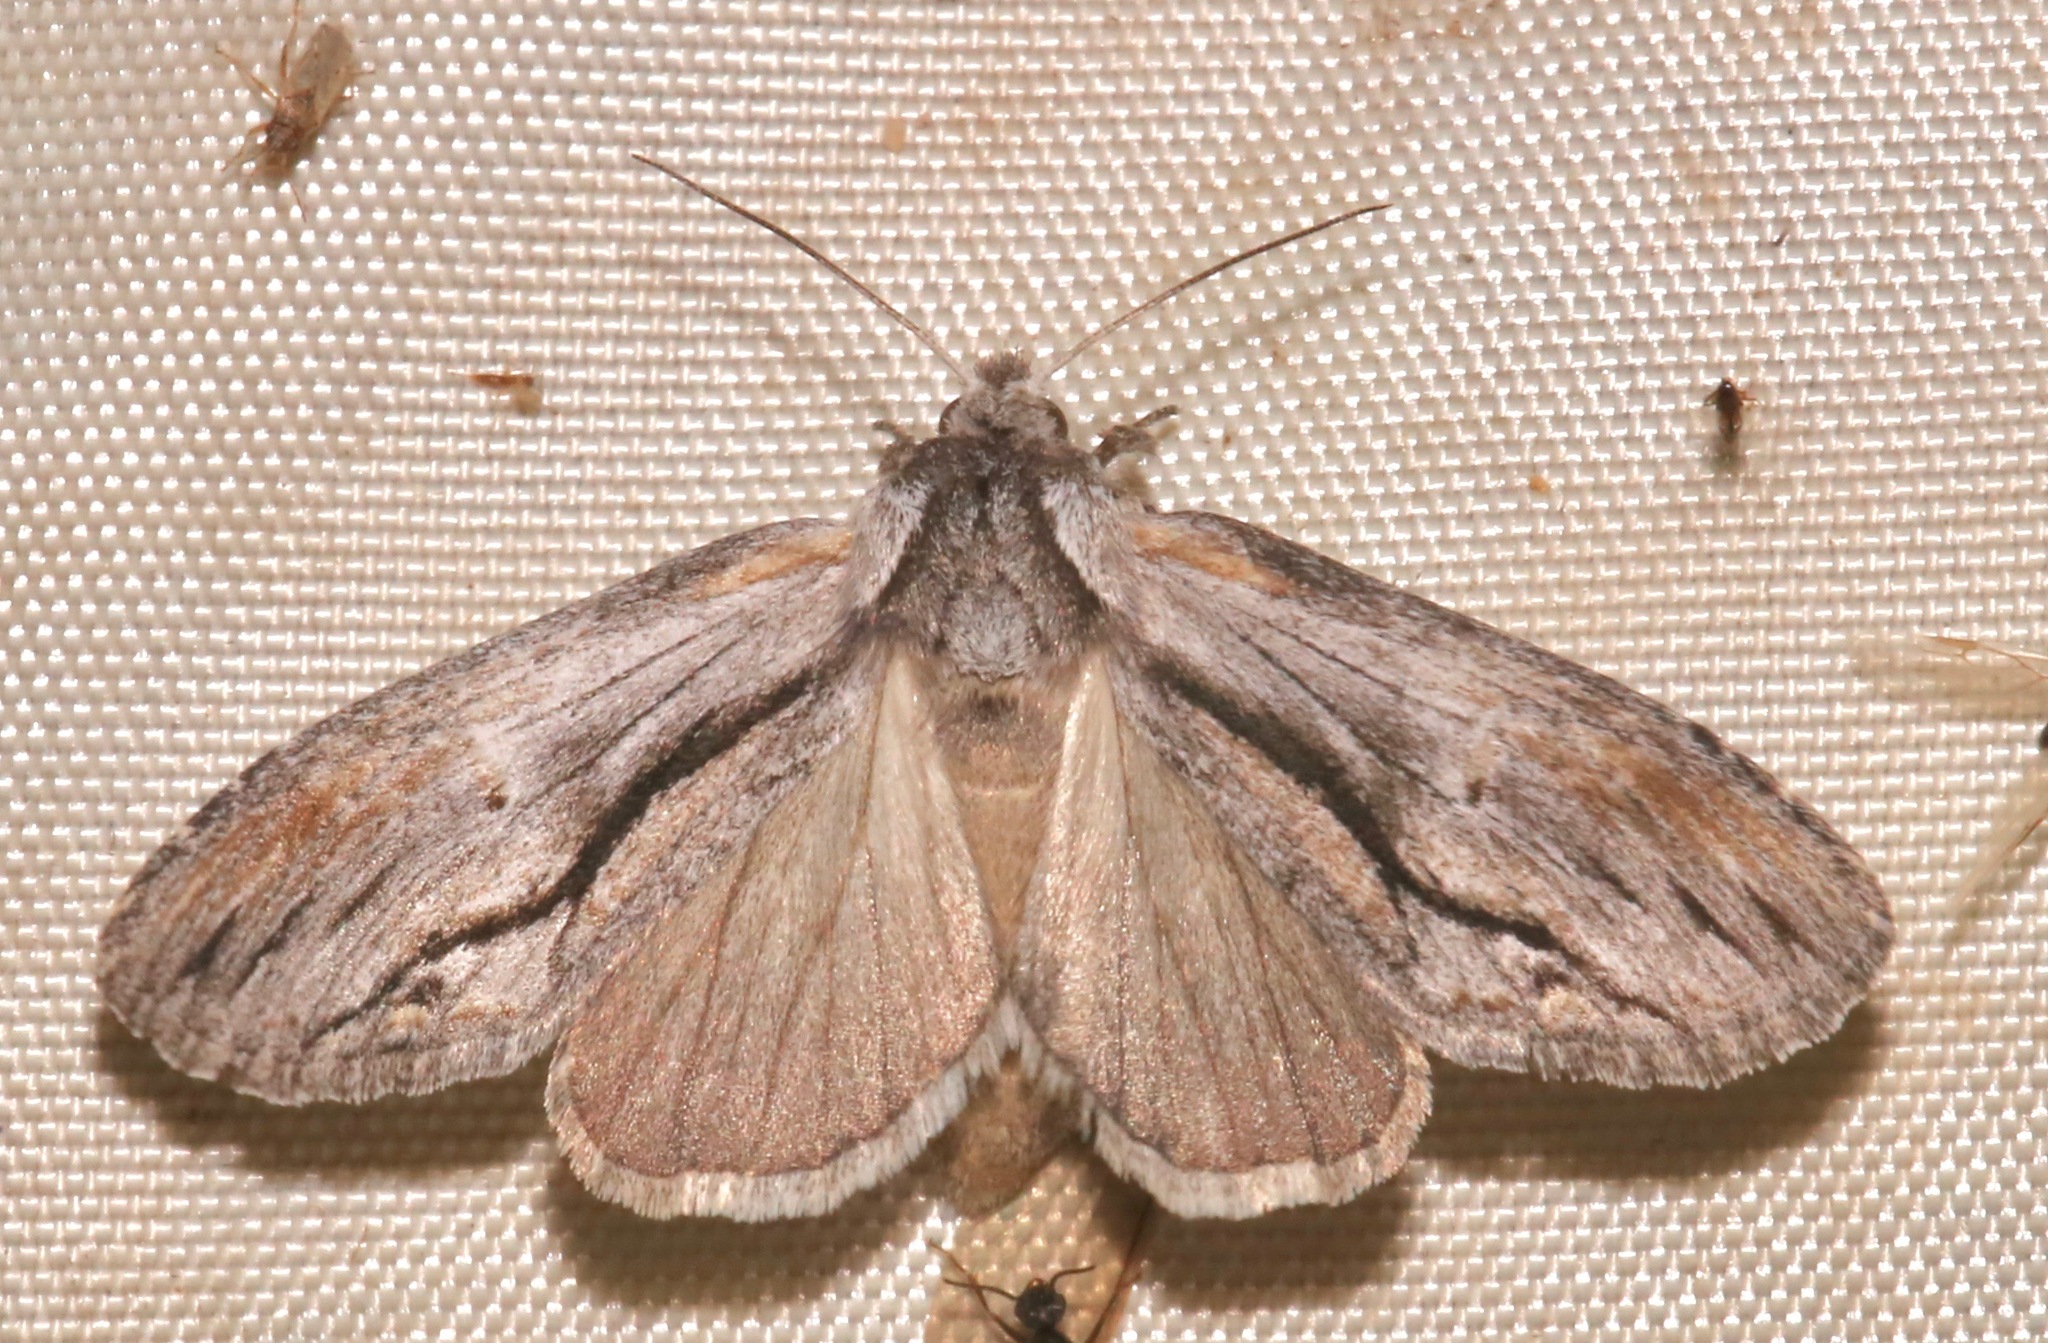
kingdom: Animalia
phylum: Arthropoda
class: Insecta
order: Lepidoptera
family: Notodontidae
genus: Notela
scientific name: Notela jaliscana
